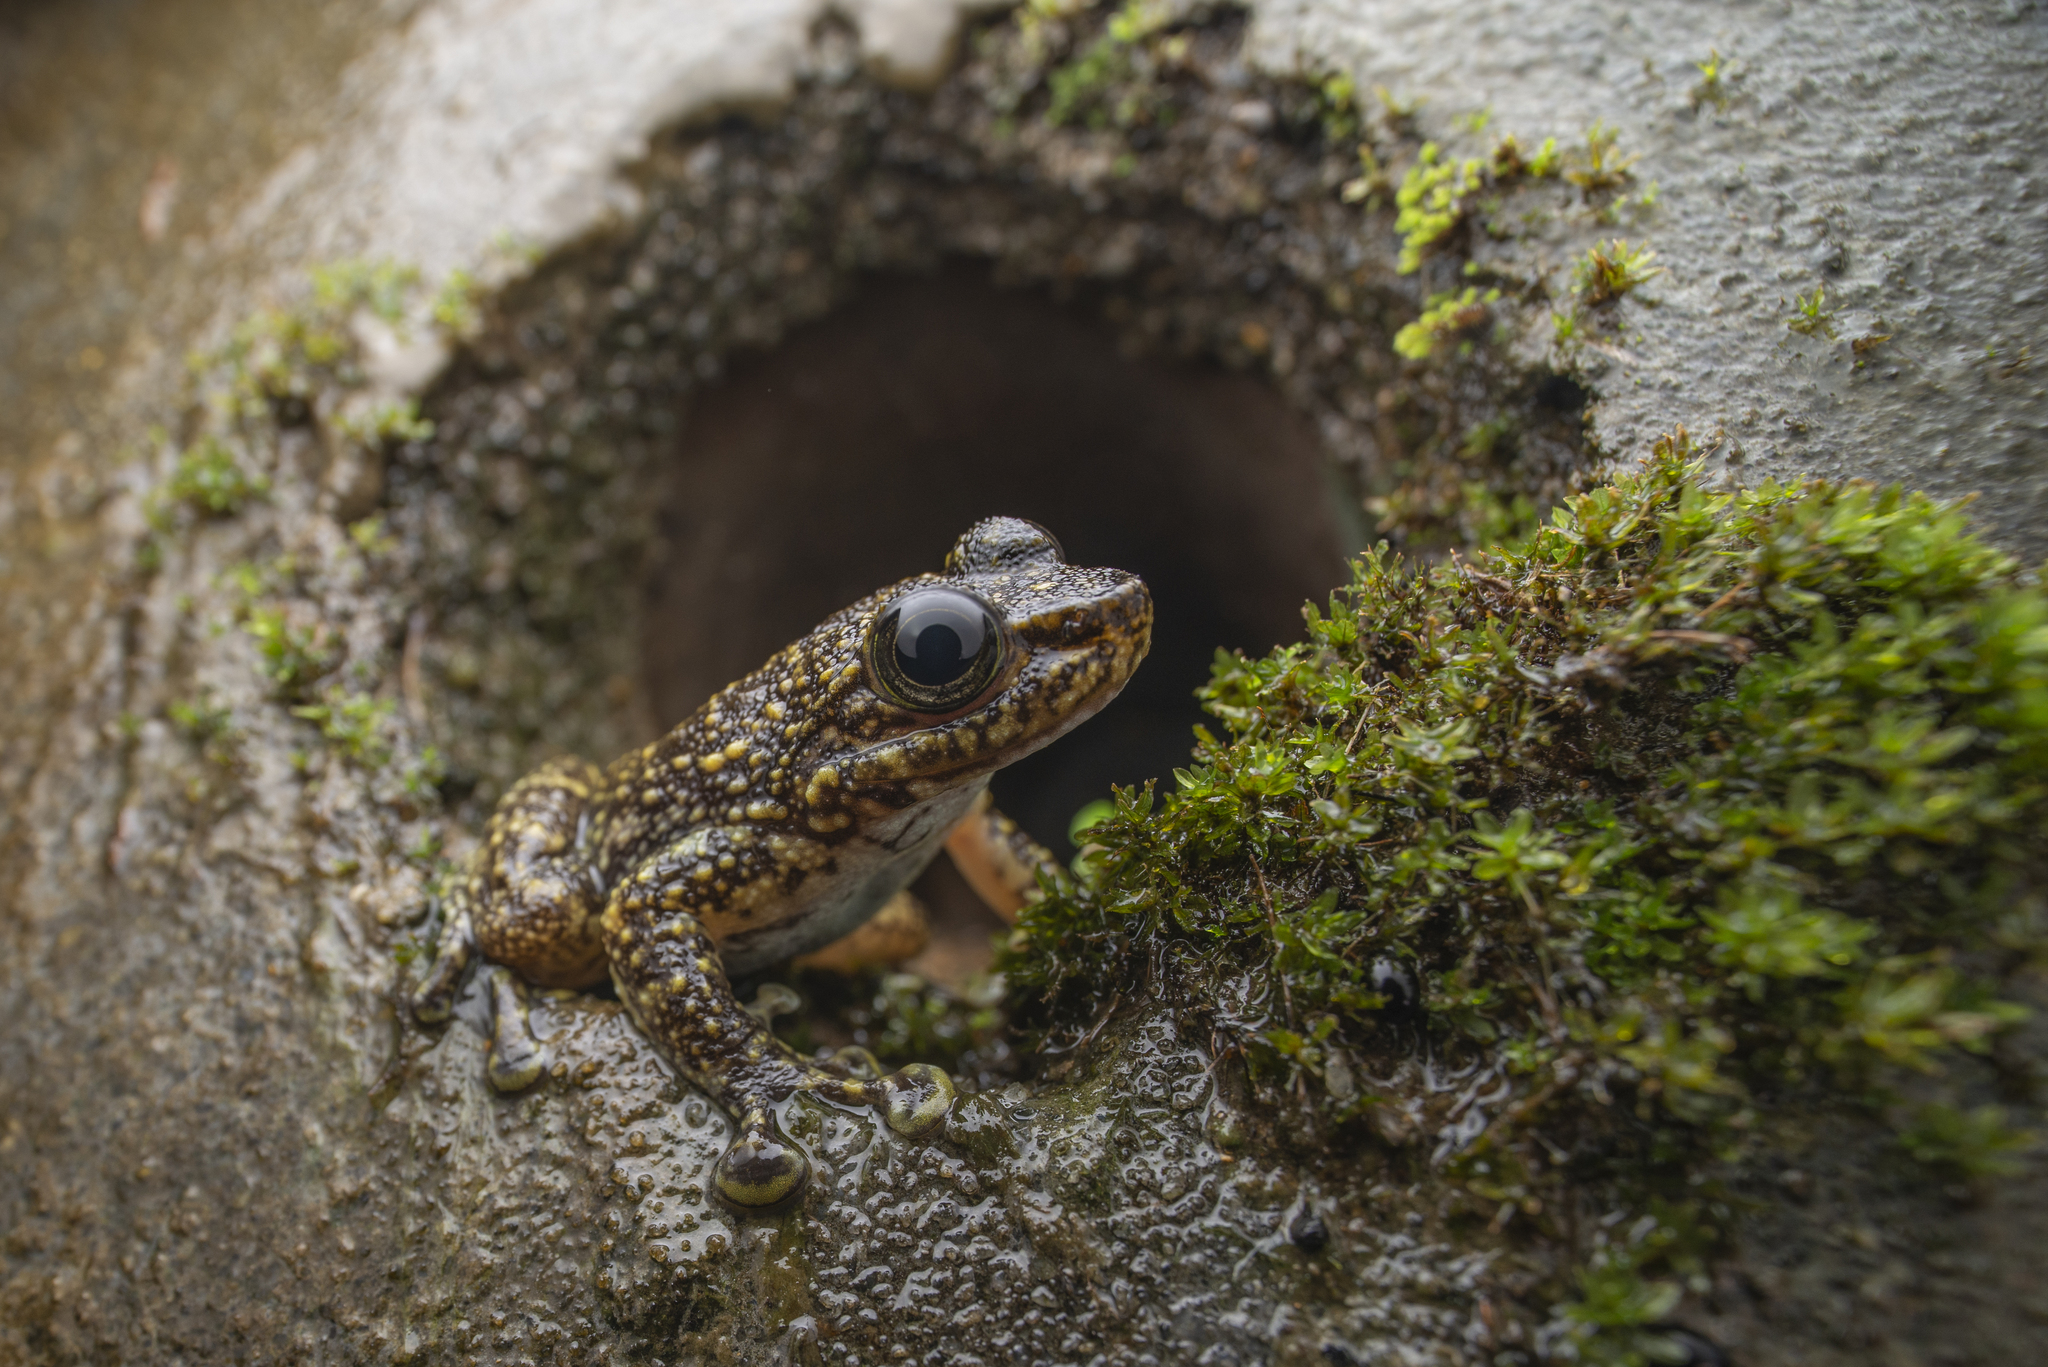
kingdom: Animalia
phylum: Chordata
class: Amphibia
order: Anura
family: Ranidae
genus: Amolops
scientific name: Amolops hongkongensis
